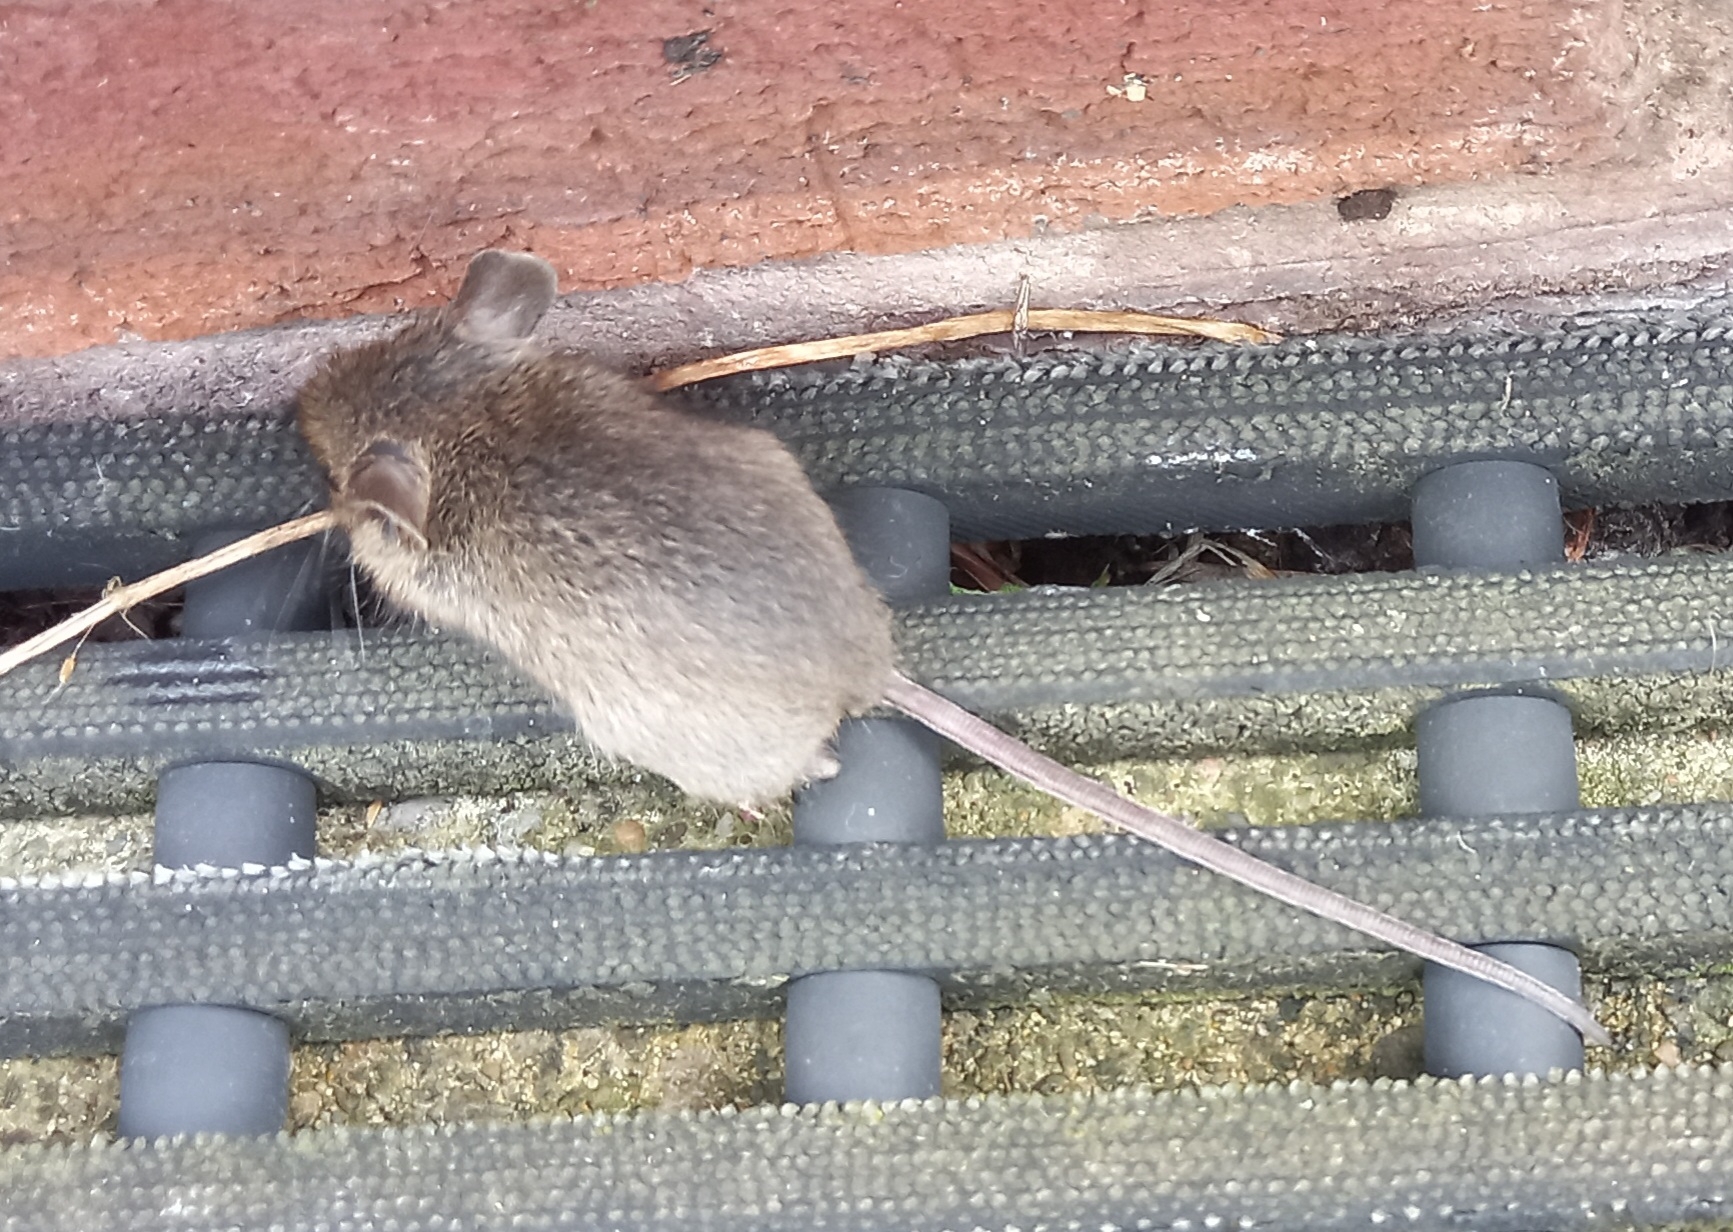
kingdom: Animalia
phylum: Chordata
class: Mammalia
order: Rodentia
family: Muridae
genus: Apodemus
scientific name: Apodemus sylvaticus
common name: Wood mouse
